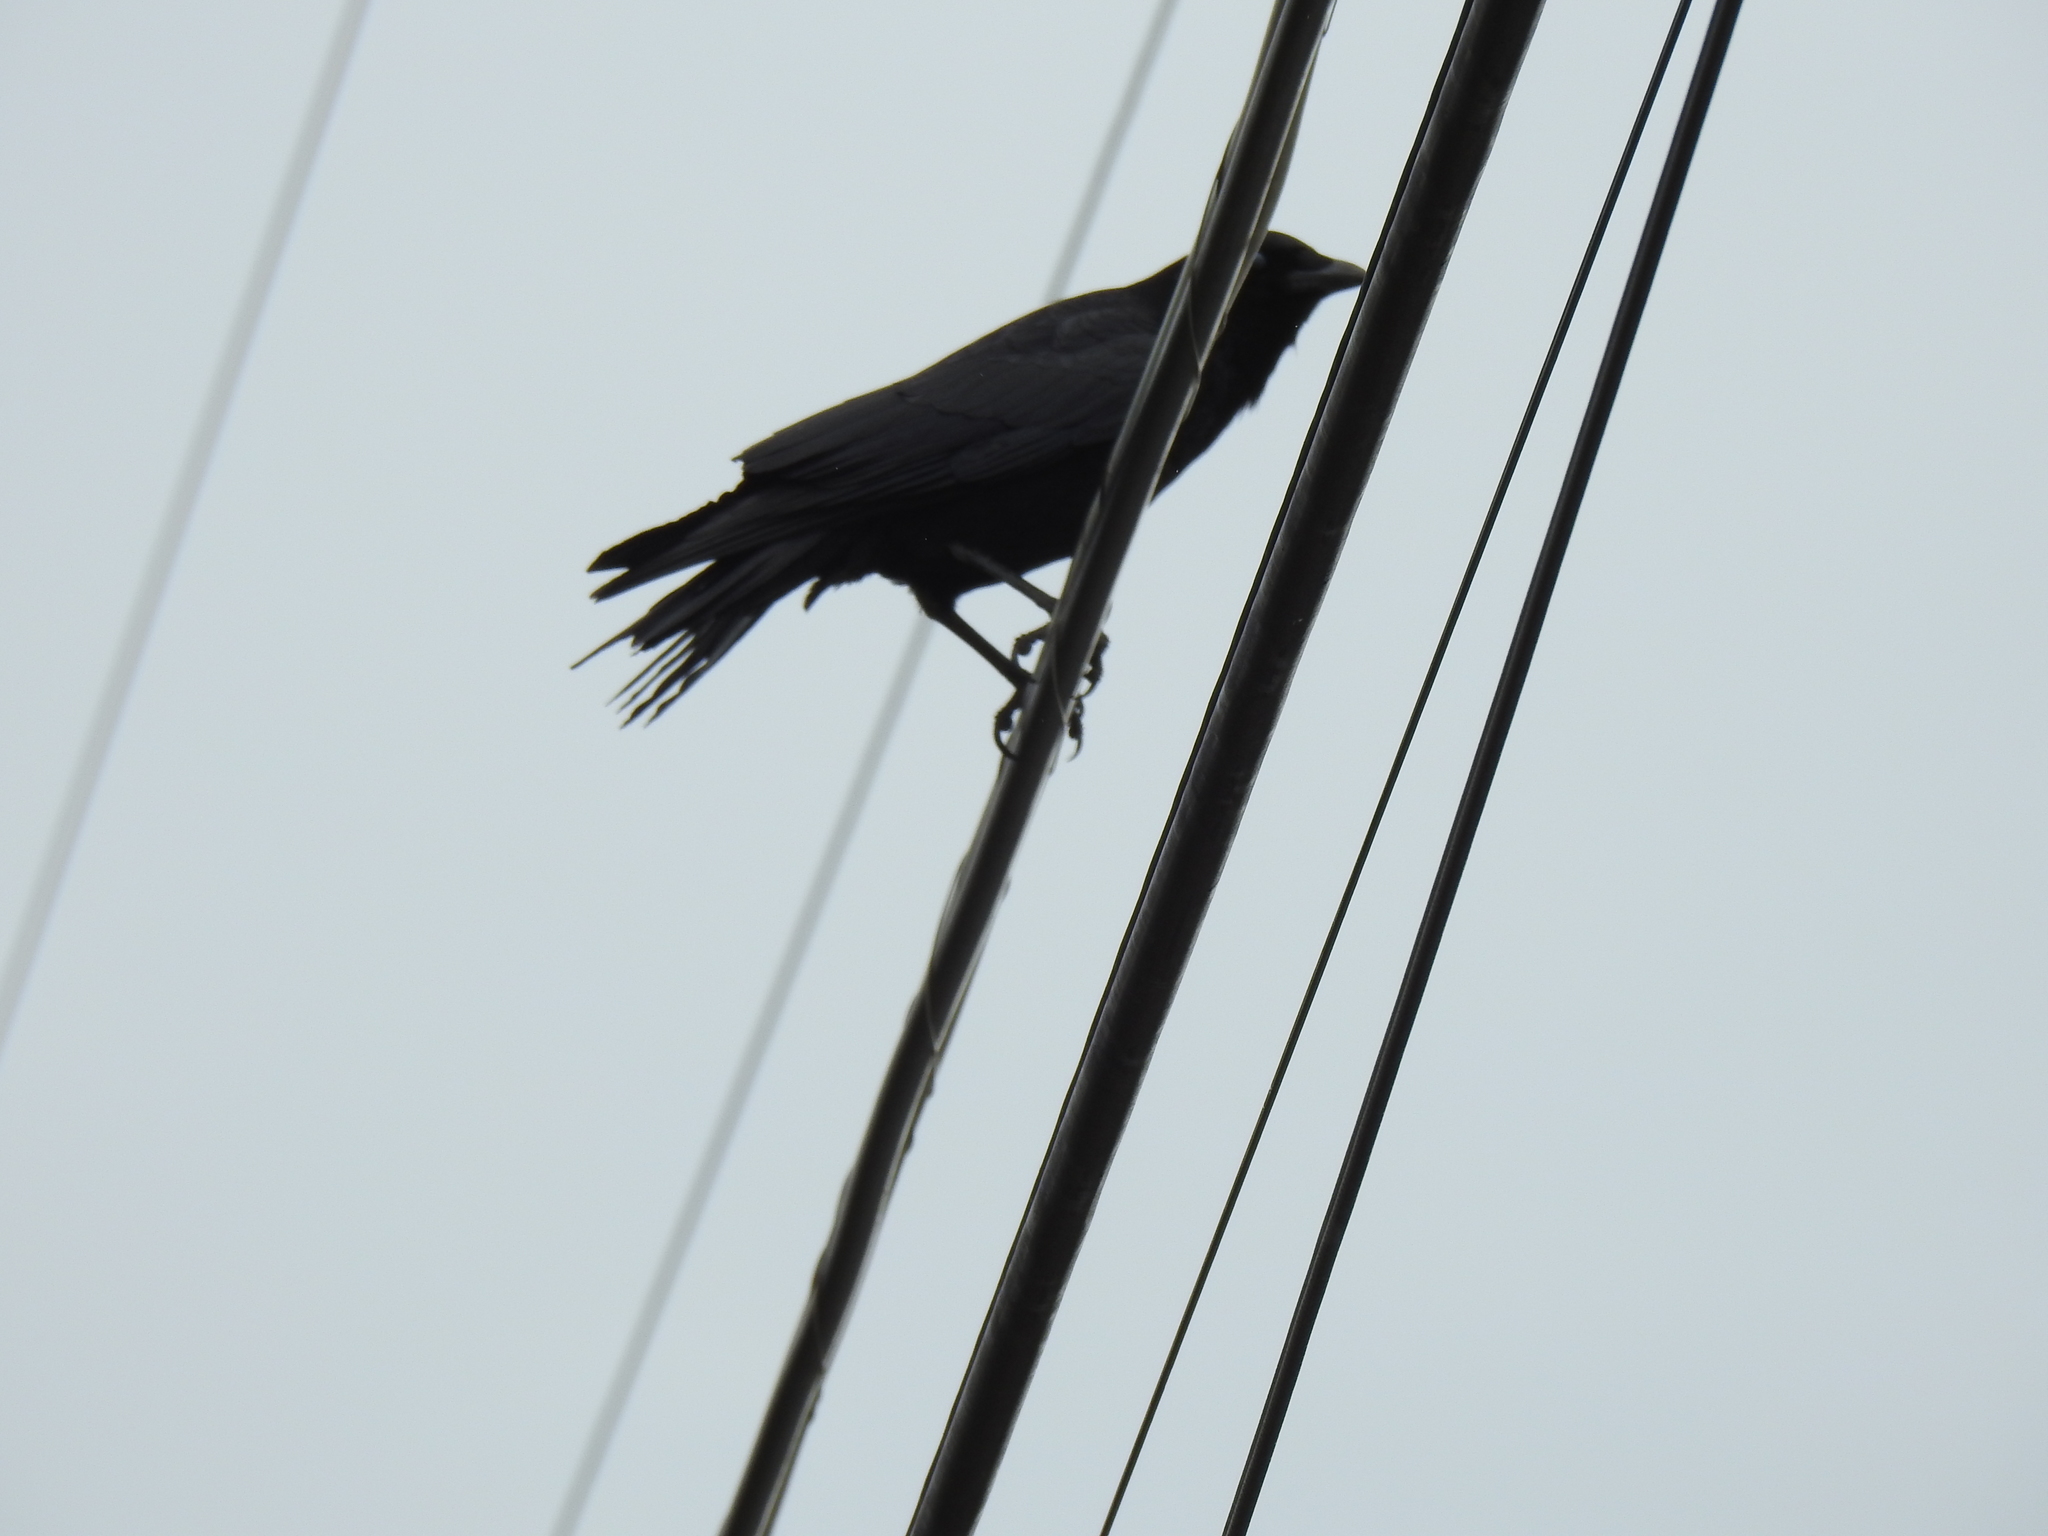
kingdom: Animalia
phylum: Chordata
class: Aves
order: Passeriformes
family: Corvidae
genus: Corvus
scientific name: Corvus brachyrhynchos
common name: American crow
